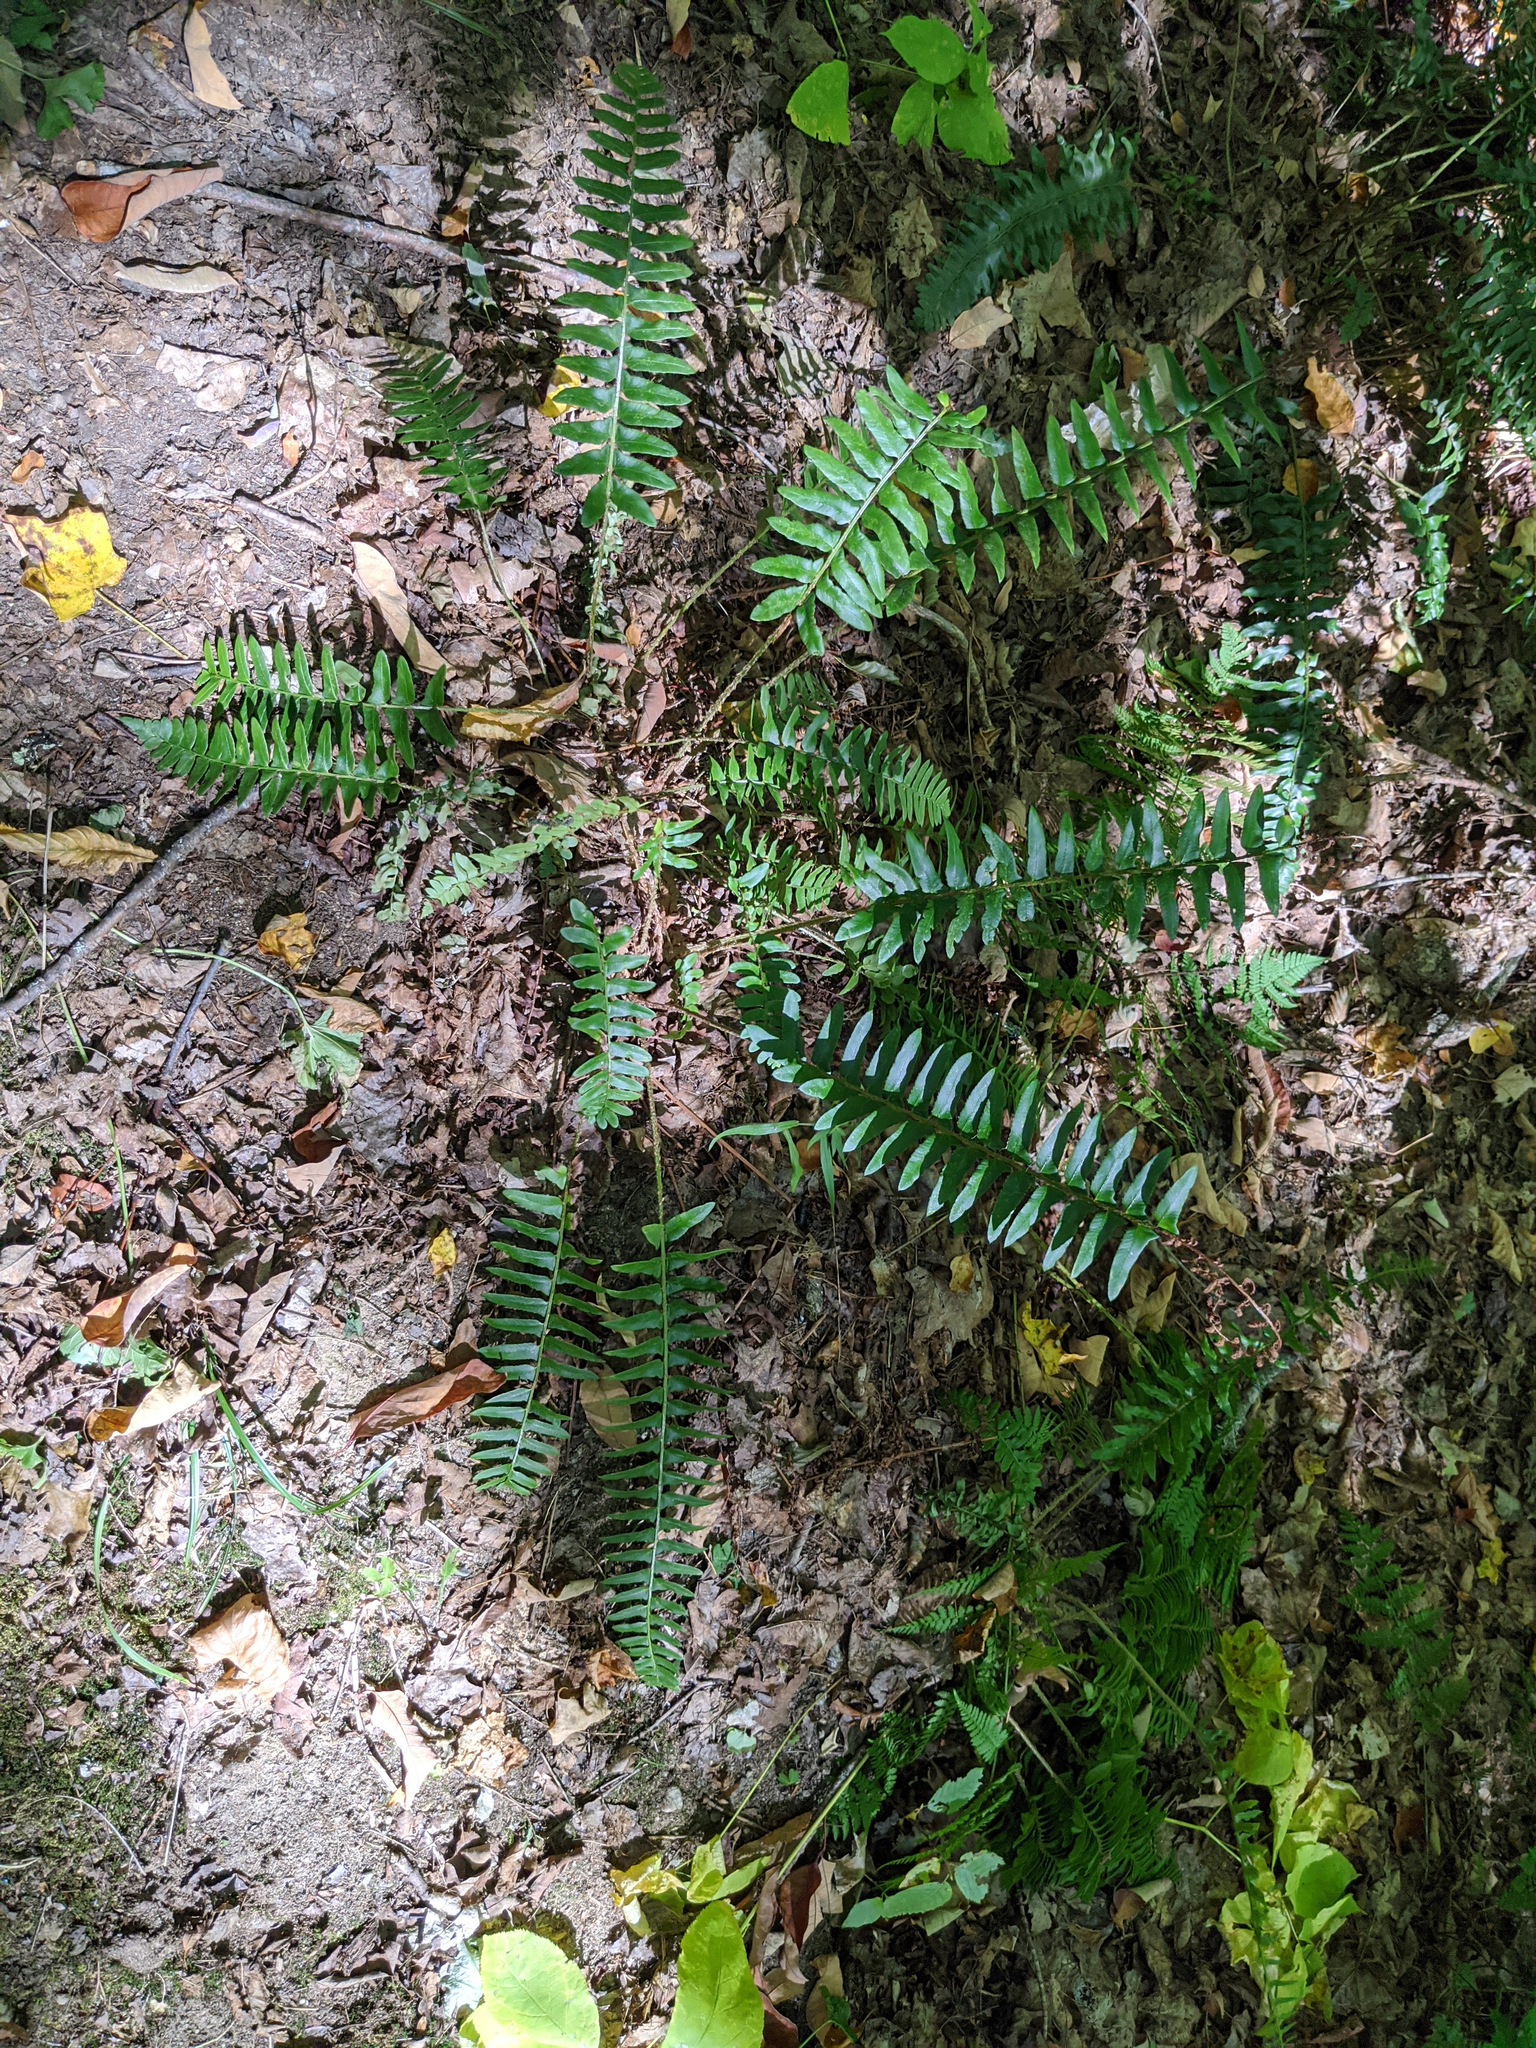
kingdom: Plantae
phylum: Tracheophyta
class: Polypodiopsida
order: Polypodiales
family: Dryopteridaceae
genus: Polystichum
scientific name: Polystichum acrostichoides
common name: Christmas fern
